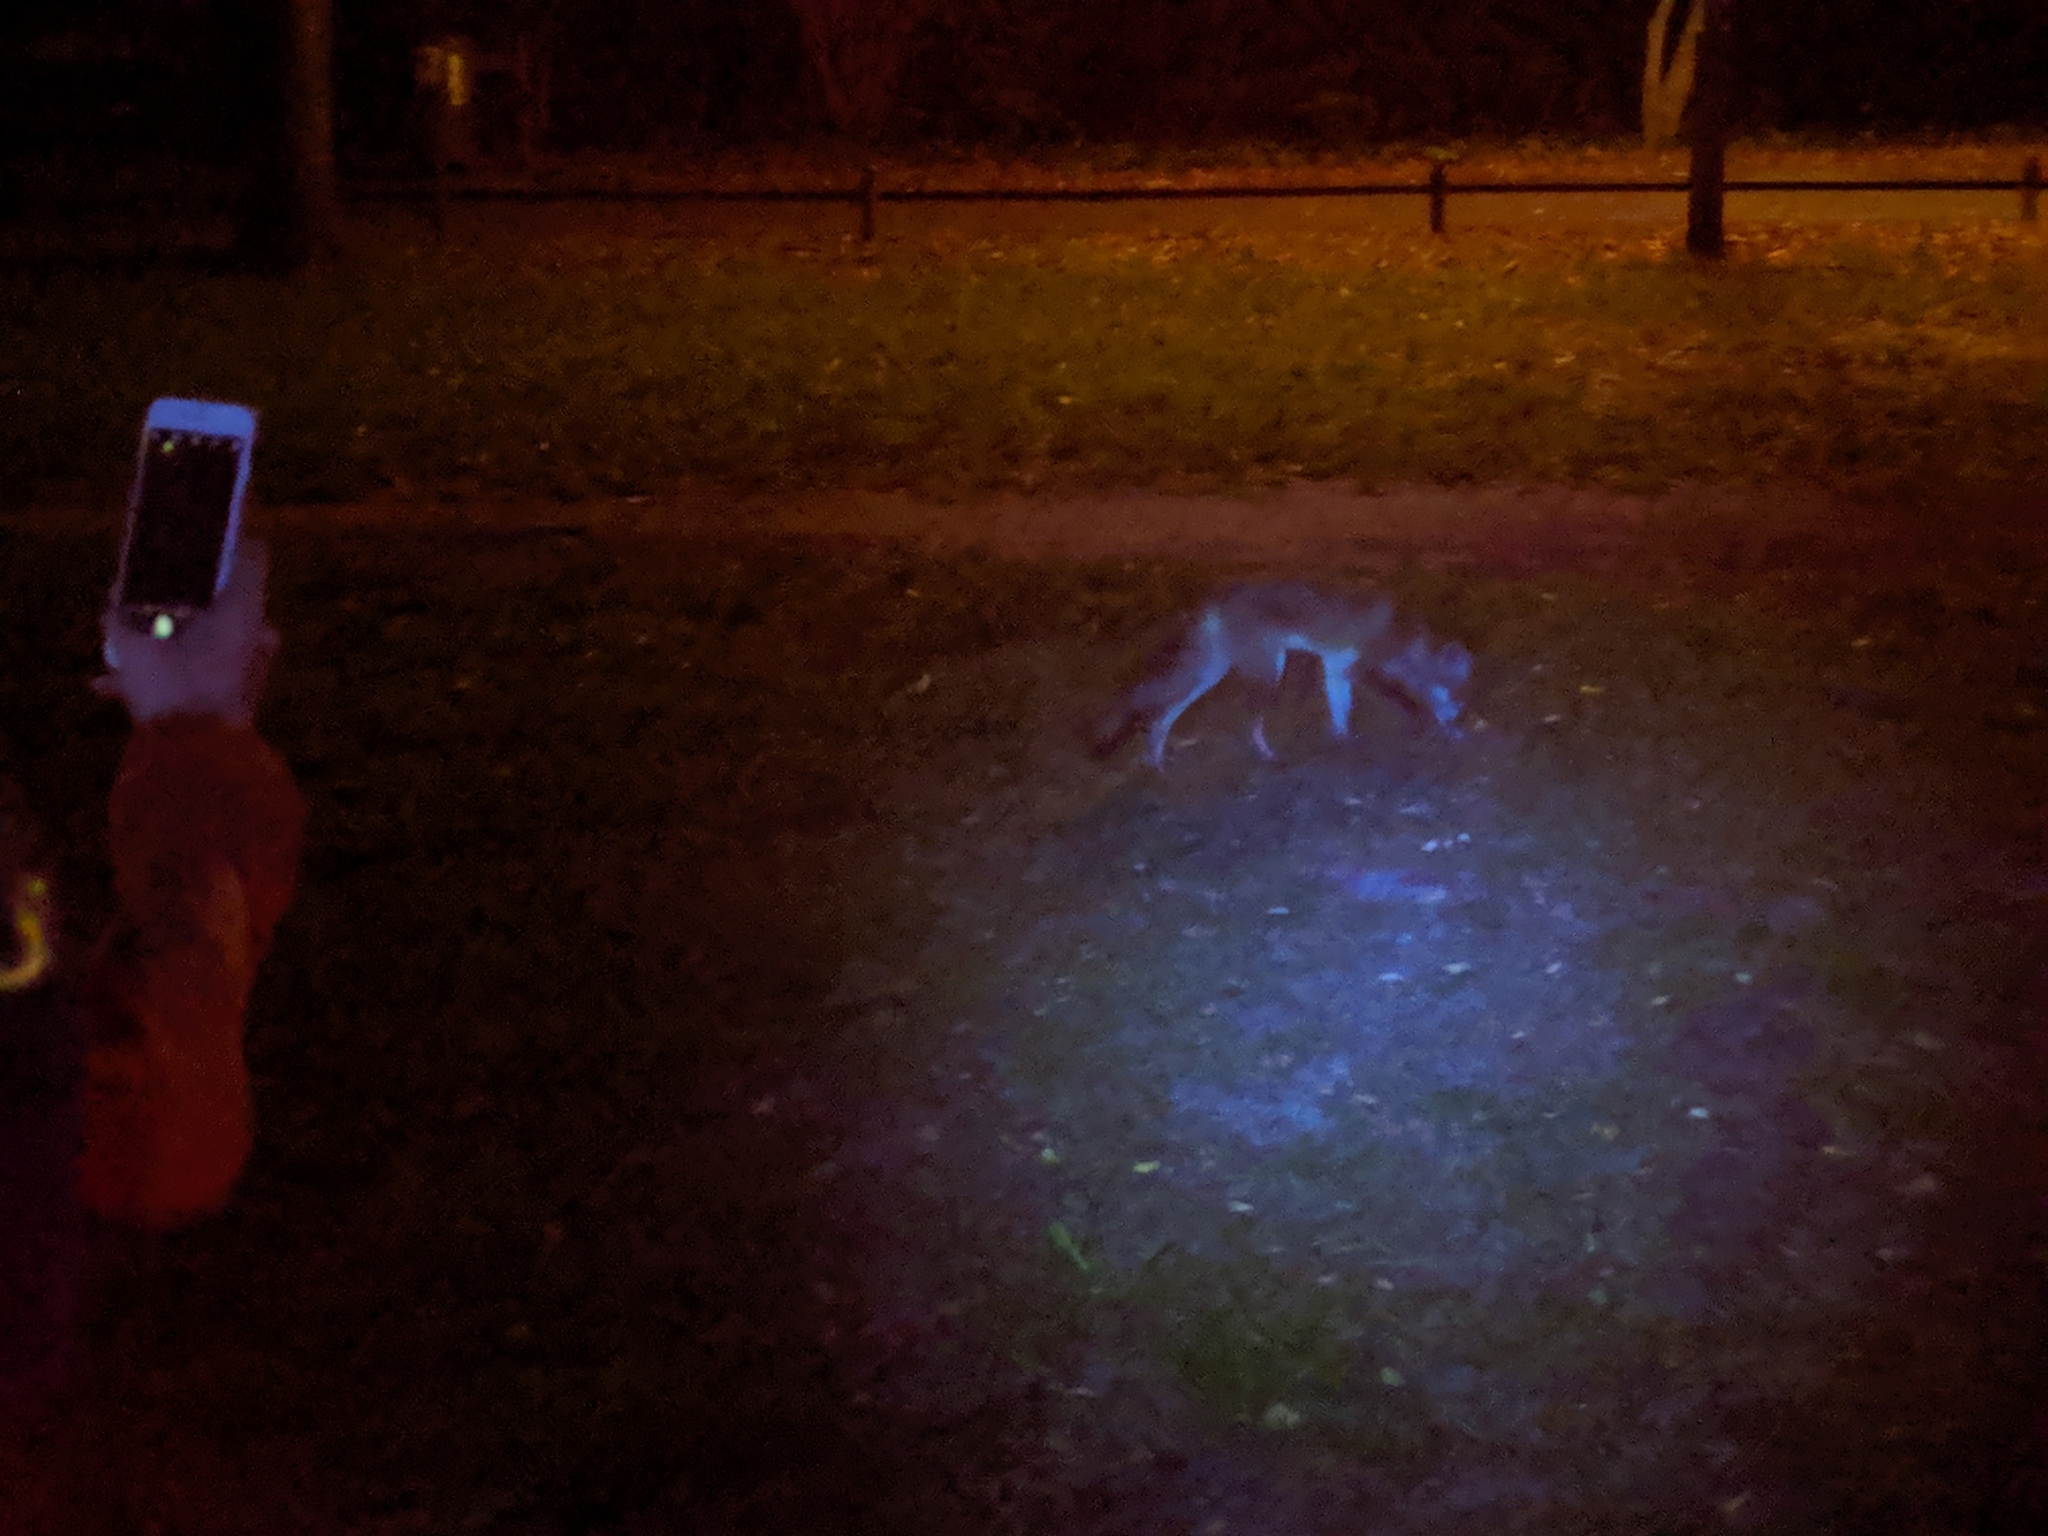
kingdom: Animalia
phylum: Chordata
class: Mammalia
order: Carnivora
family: Canidae
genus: Vulpes
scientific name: Vulpes vulpes
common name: Red fox
